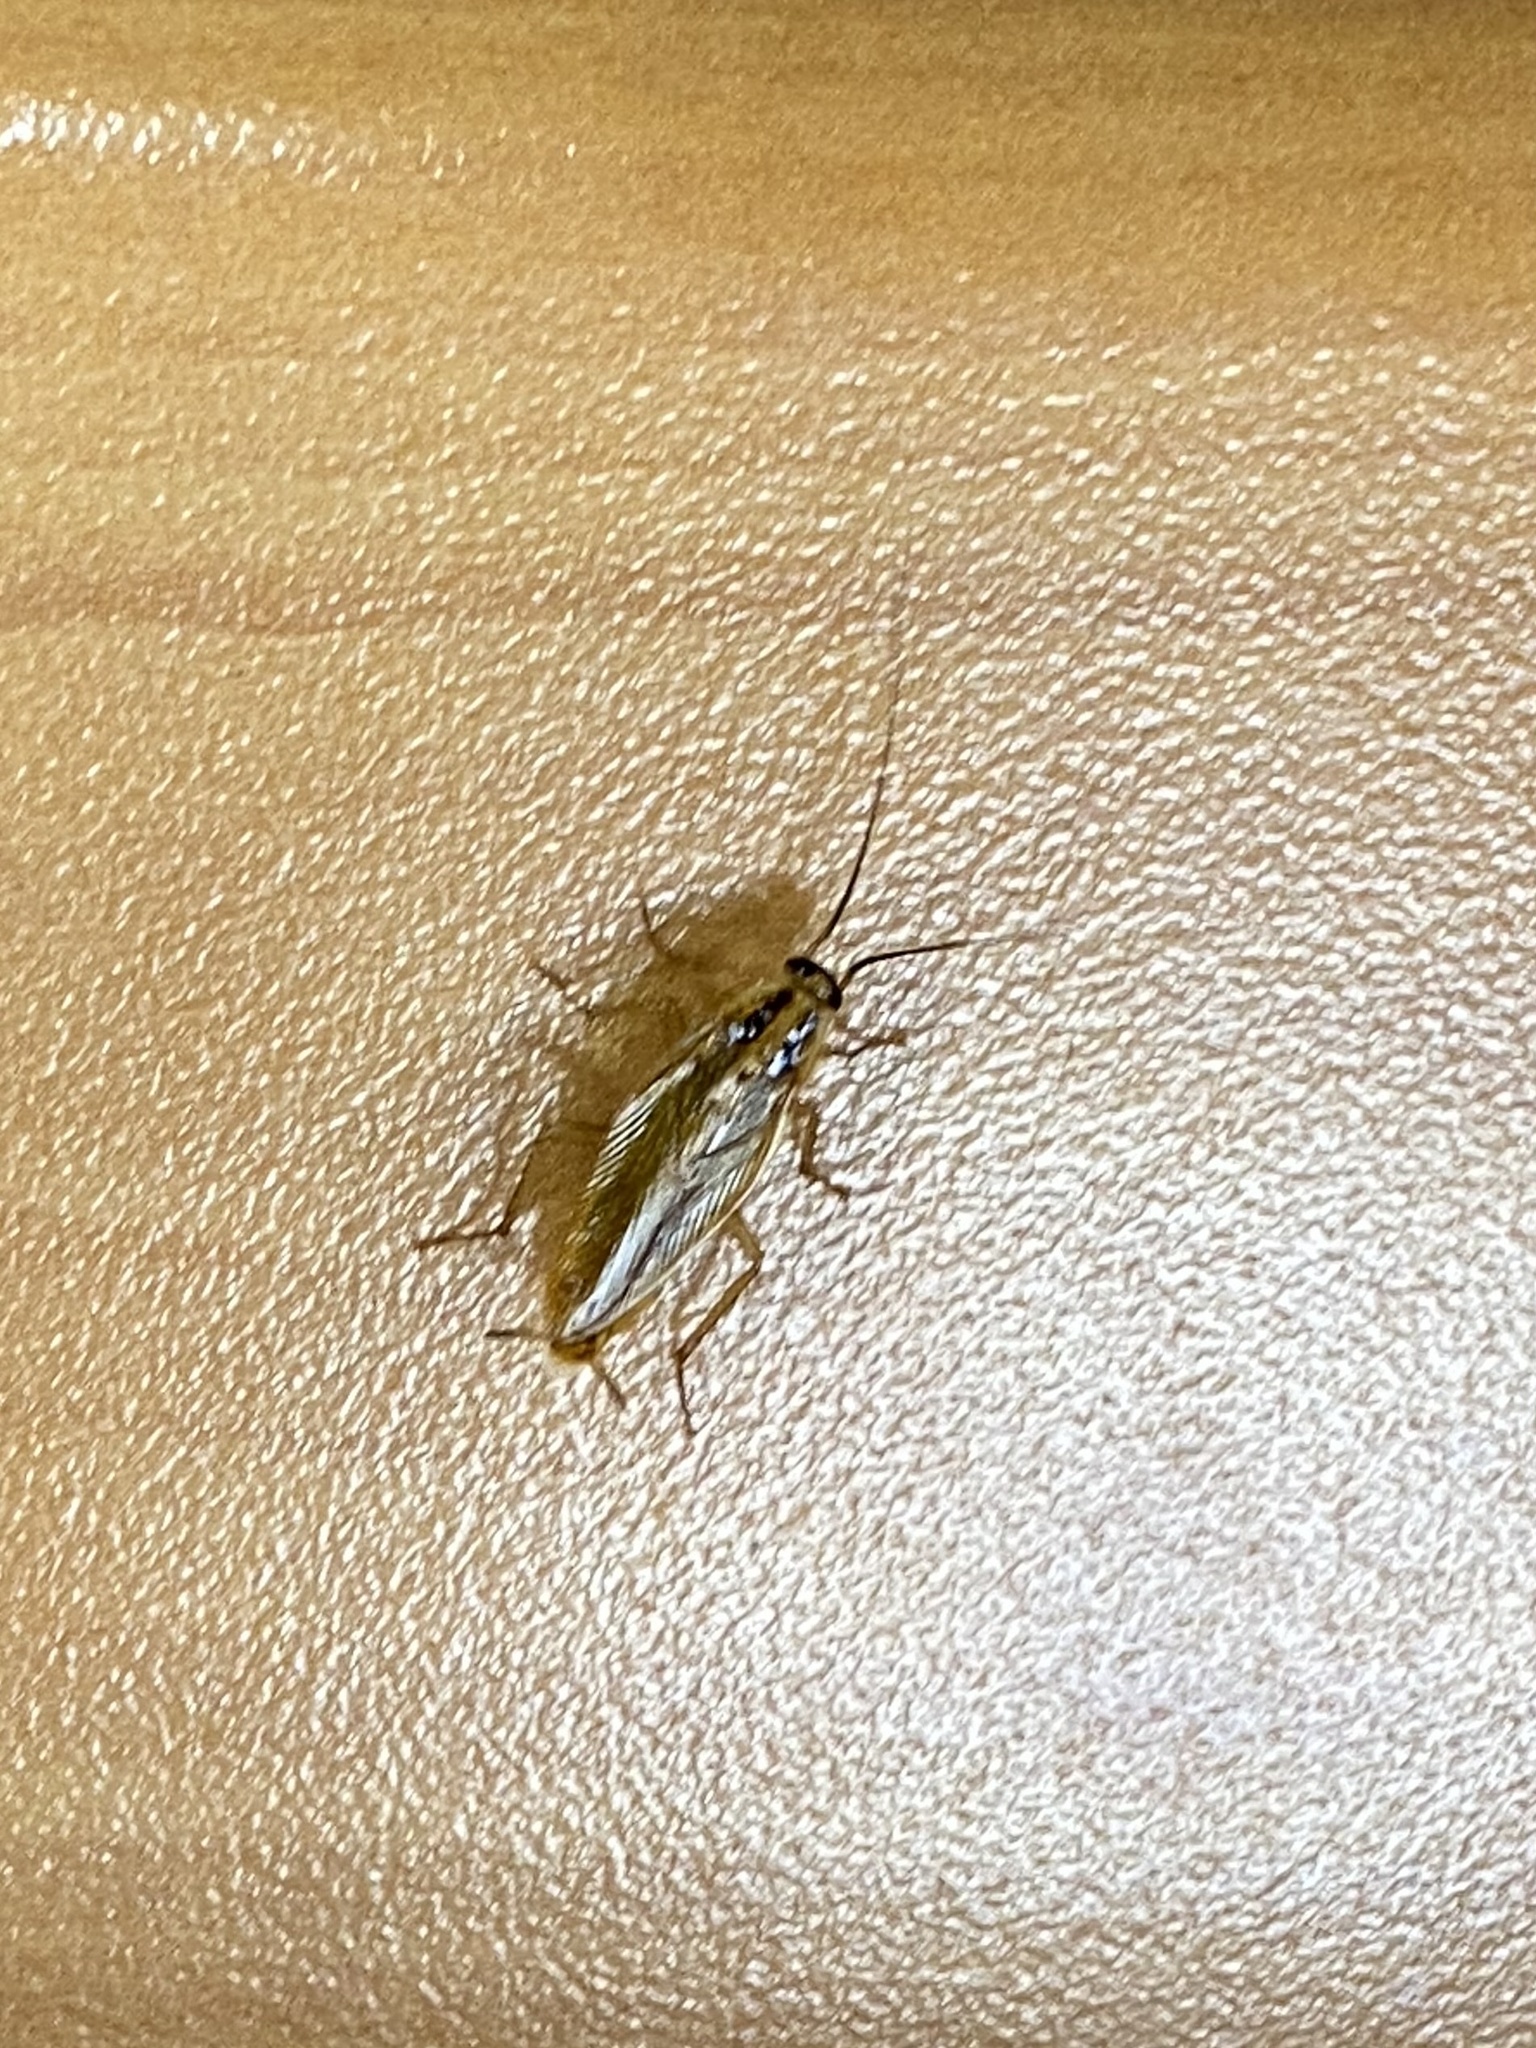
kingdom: Animalia
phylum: Arthropoda
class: Insecta
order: Blattodea
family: Ectobiidae
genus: Blattella
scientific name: Blattella germanica
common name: German cockroach
